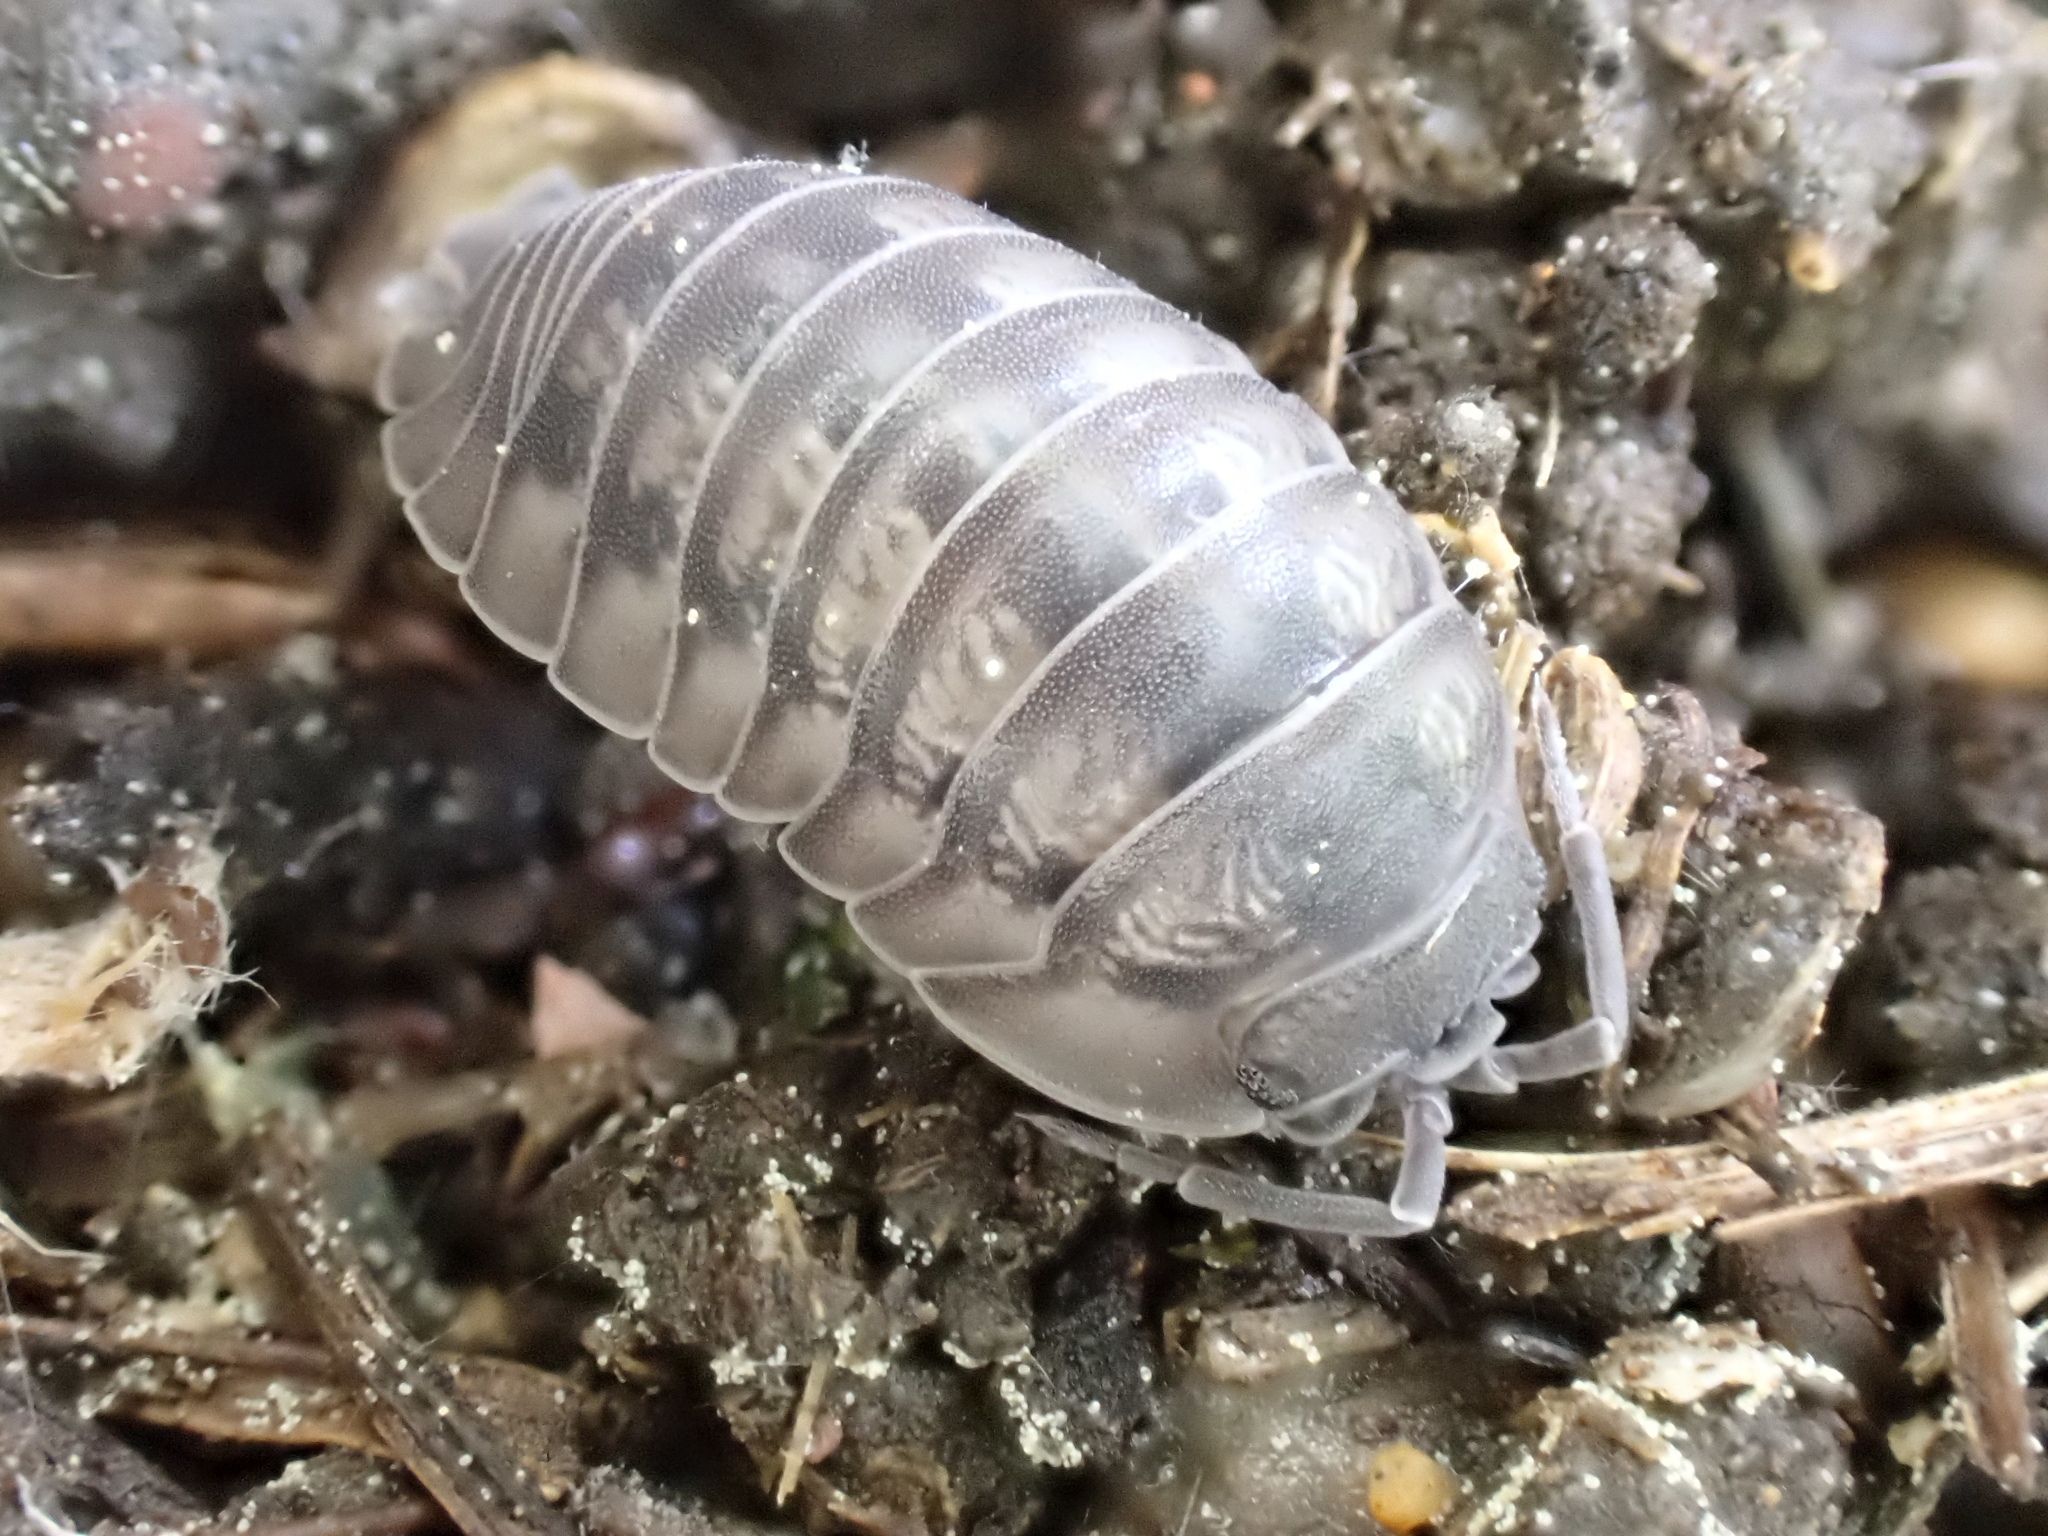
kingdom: Animalia
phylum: Arthropoda
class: Malacostraca
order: Isopoda
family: Armadillidiidae
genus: Armadillidium
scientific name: Armadillidium nasatum
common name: Isopod
